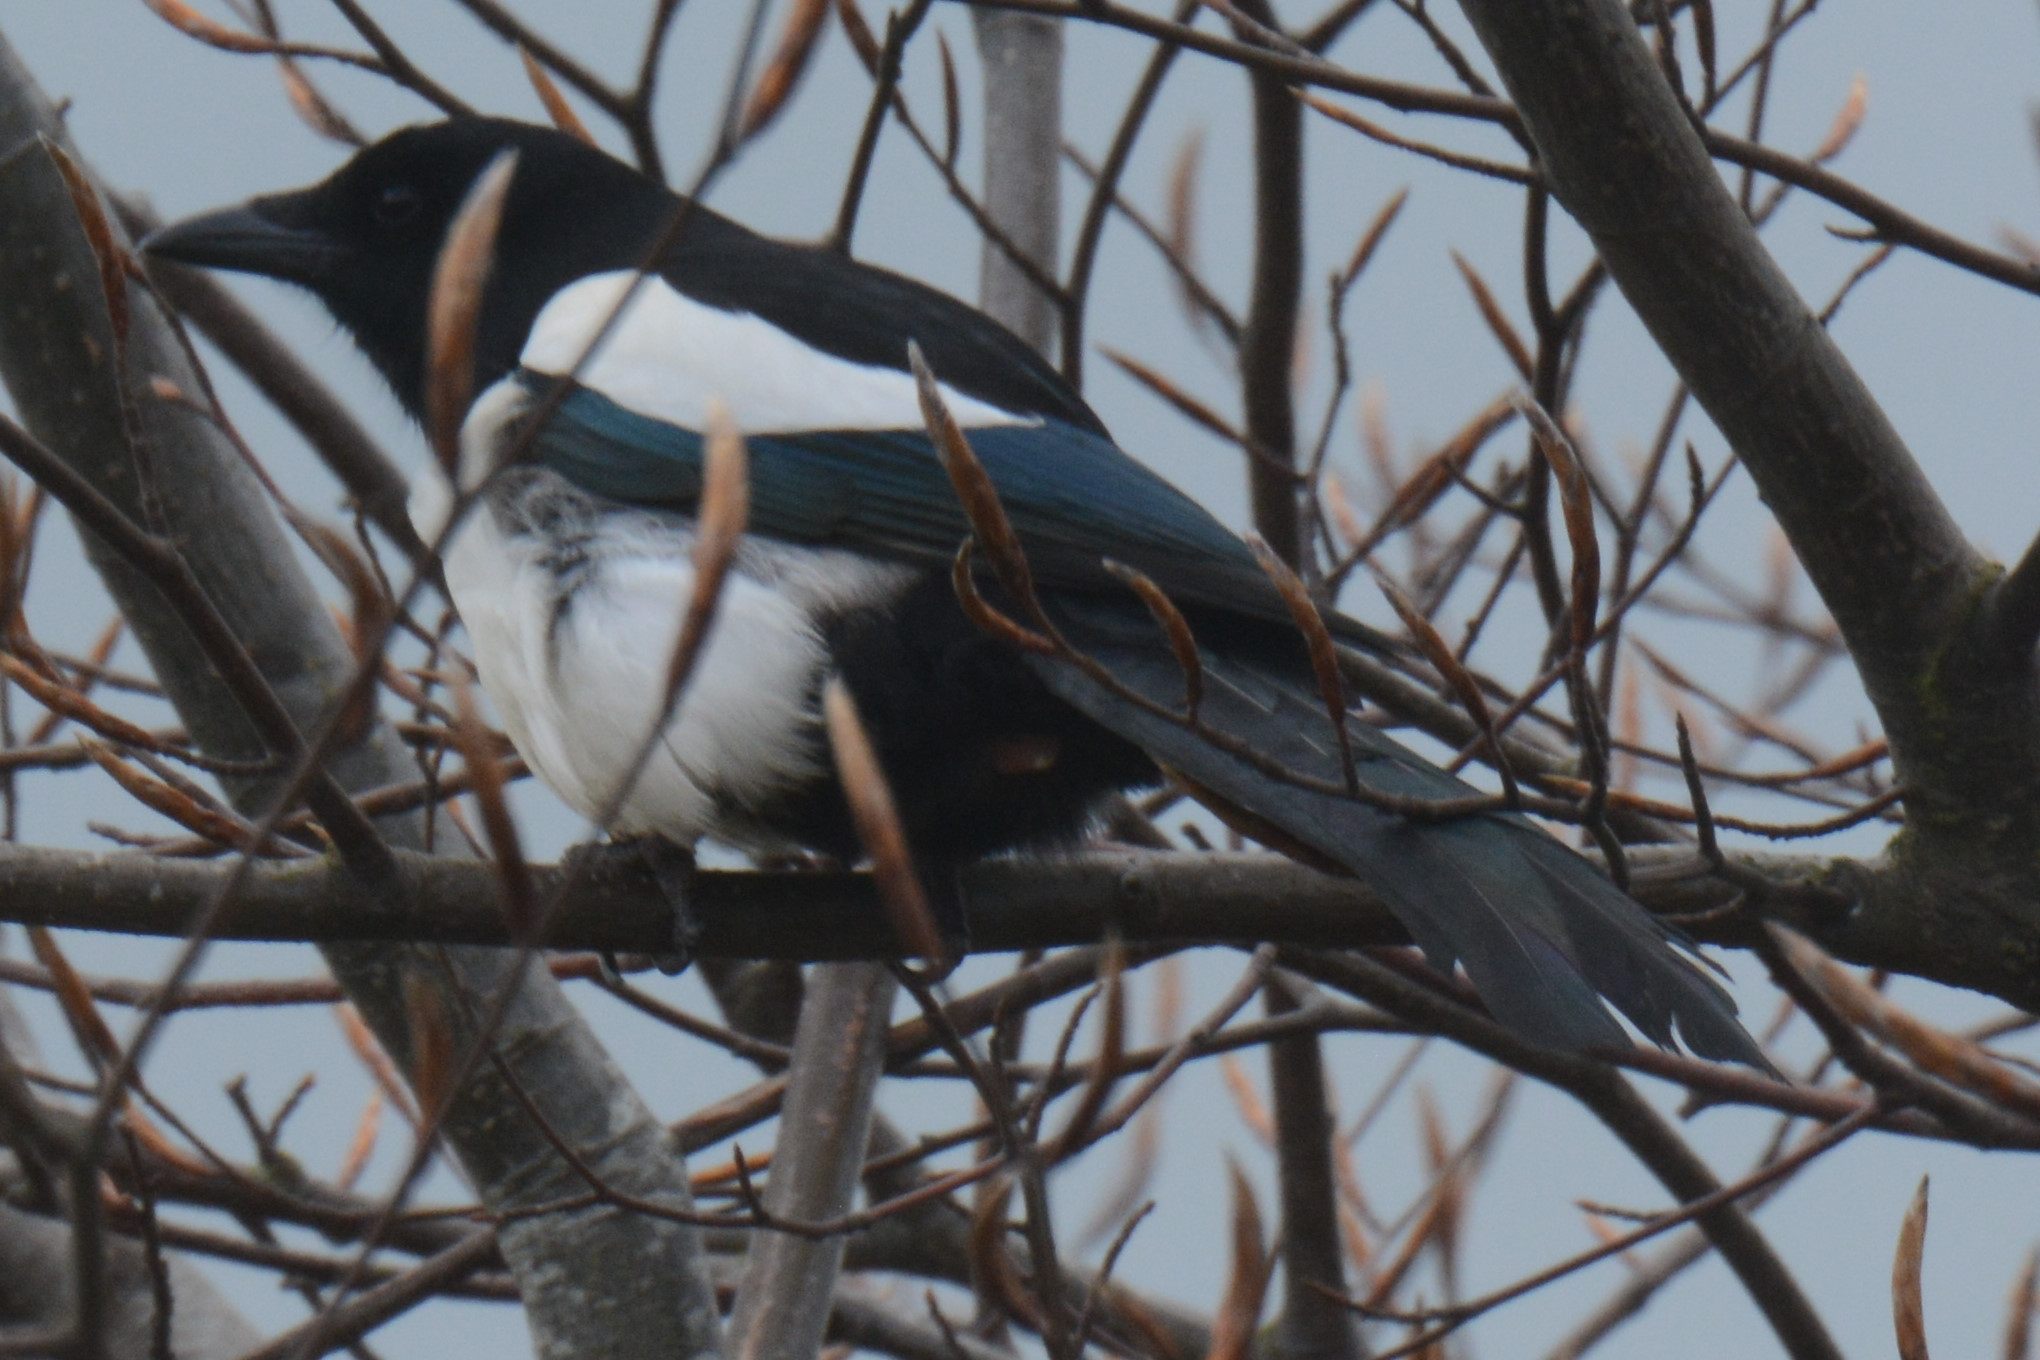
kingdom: Animalia
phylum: Chordata
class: Aves
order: Passeriformes
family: Corvidae
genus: Pica
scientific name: Pica pica
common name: Eurasian magpie
